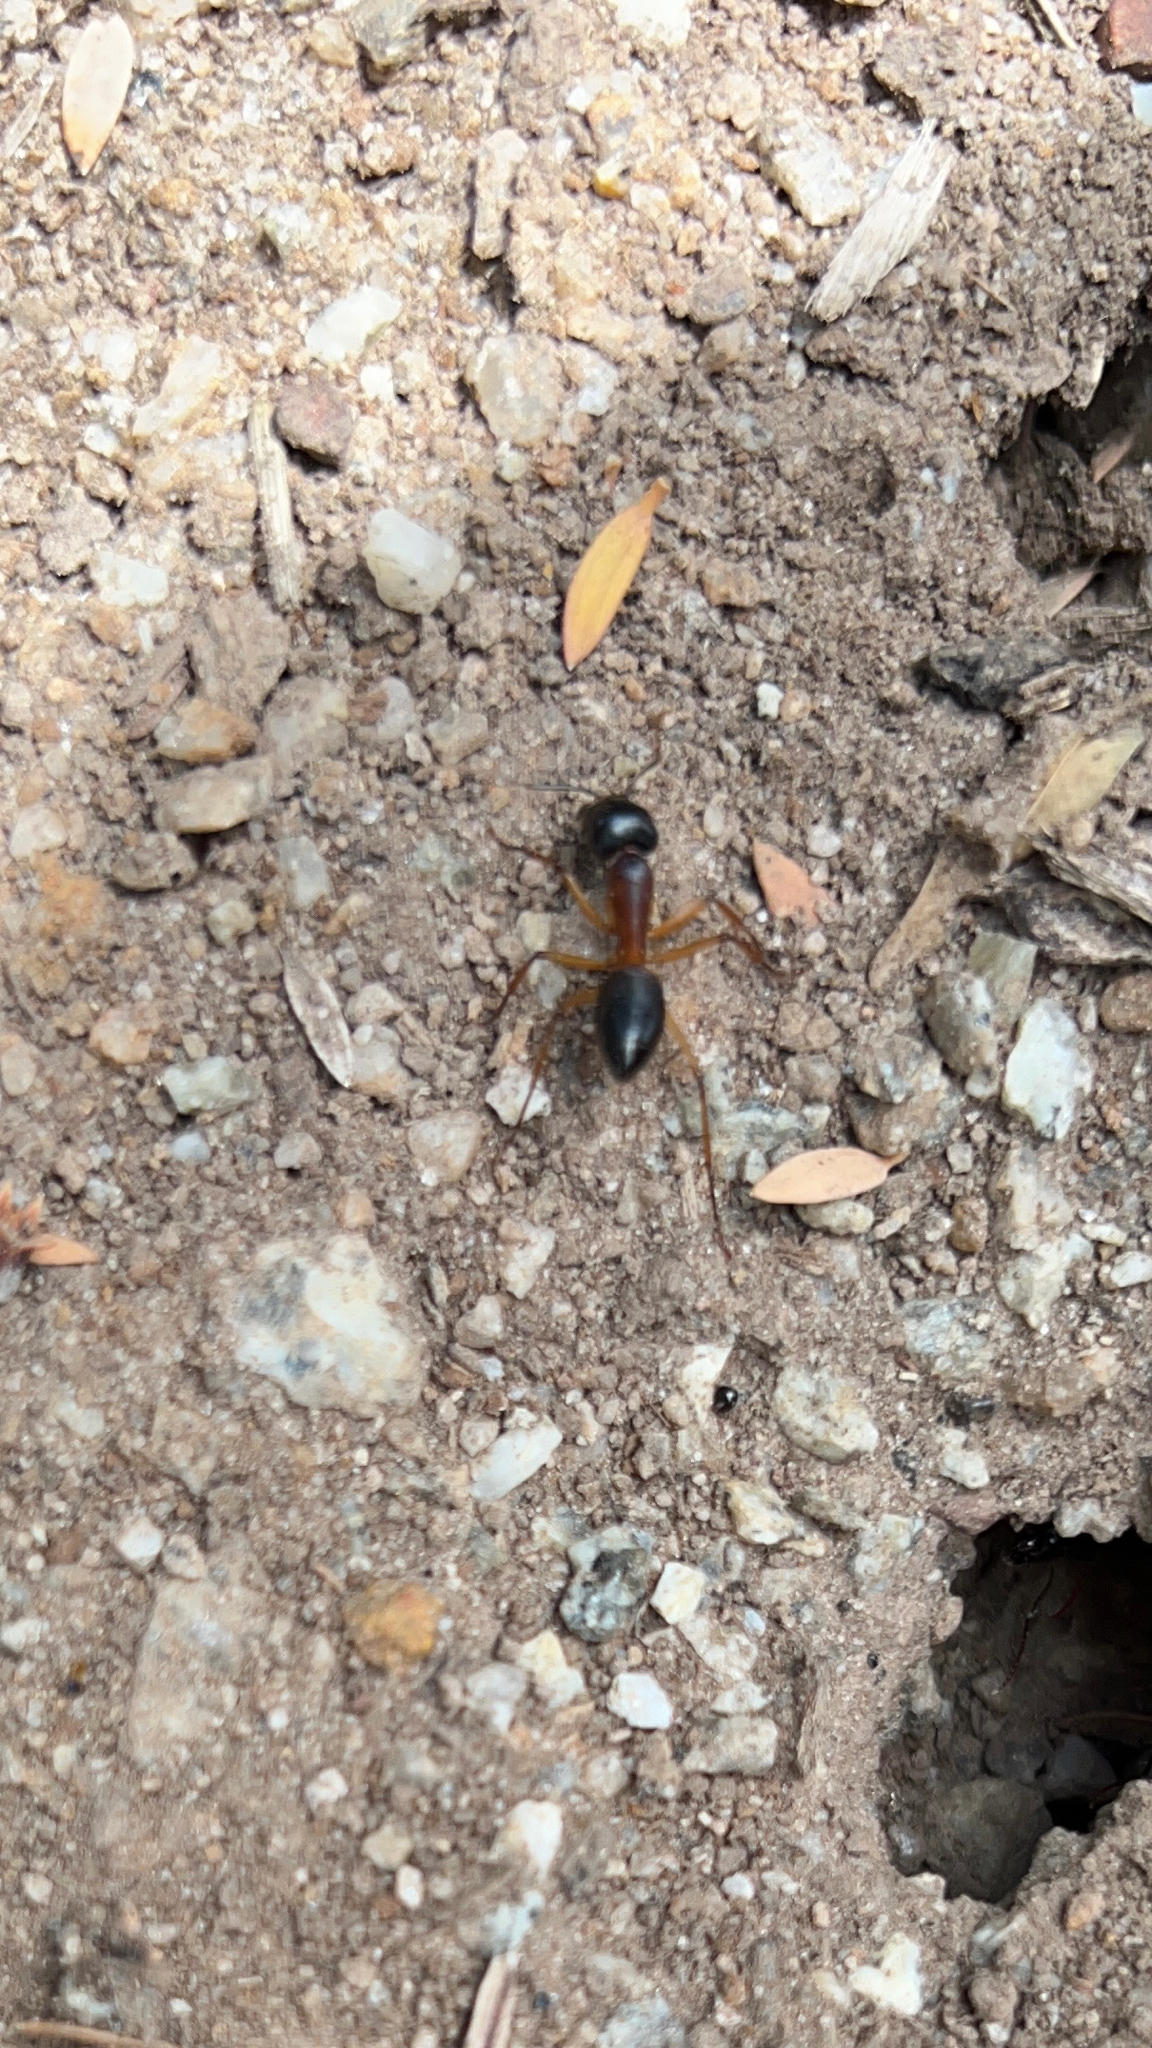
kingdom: Animalia
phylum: Arthropoda
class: Insecta
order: Hymenoptera
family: Formicidae
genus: Camponotus
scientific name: Camponotus consobrinus
